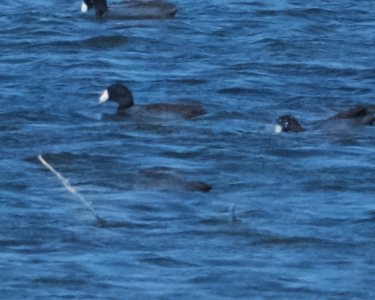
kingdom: Animalia
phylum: Chordata
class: Aves
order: Gruiformes
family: Rallidae
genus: Fulica
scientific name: Fulica americana
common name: American coot
